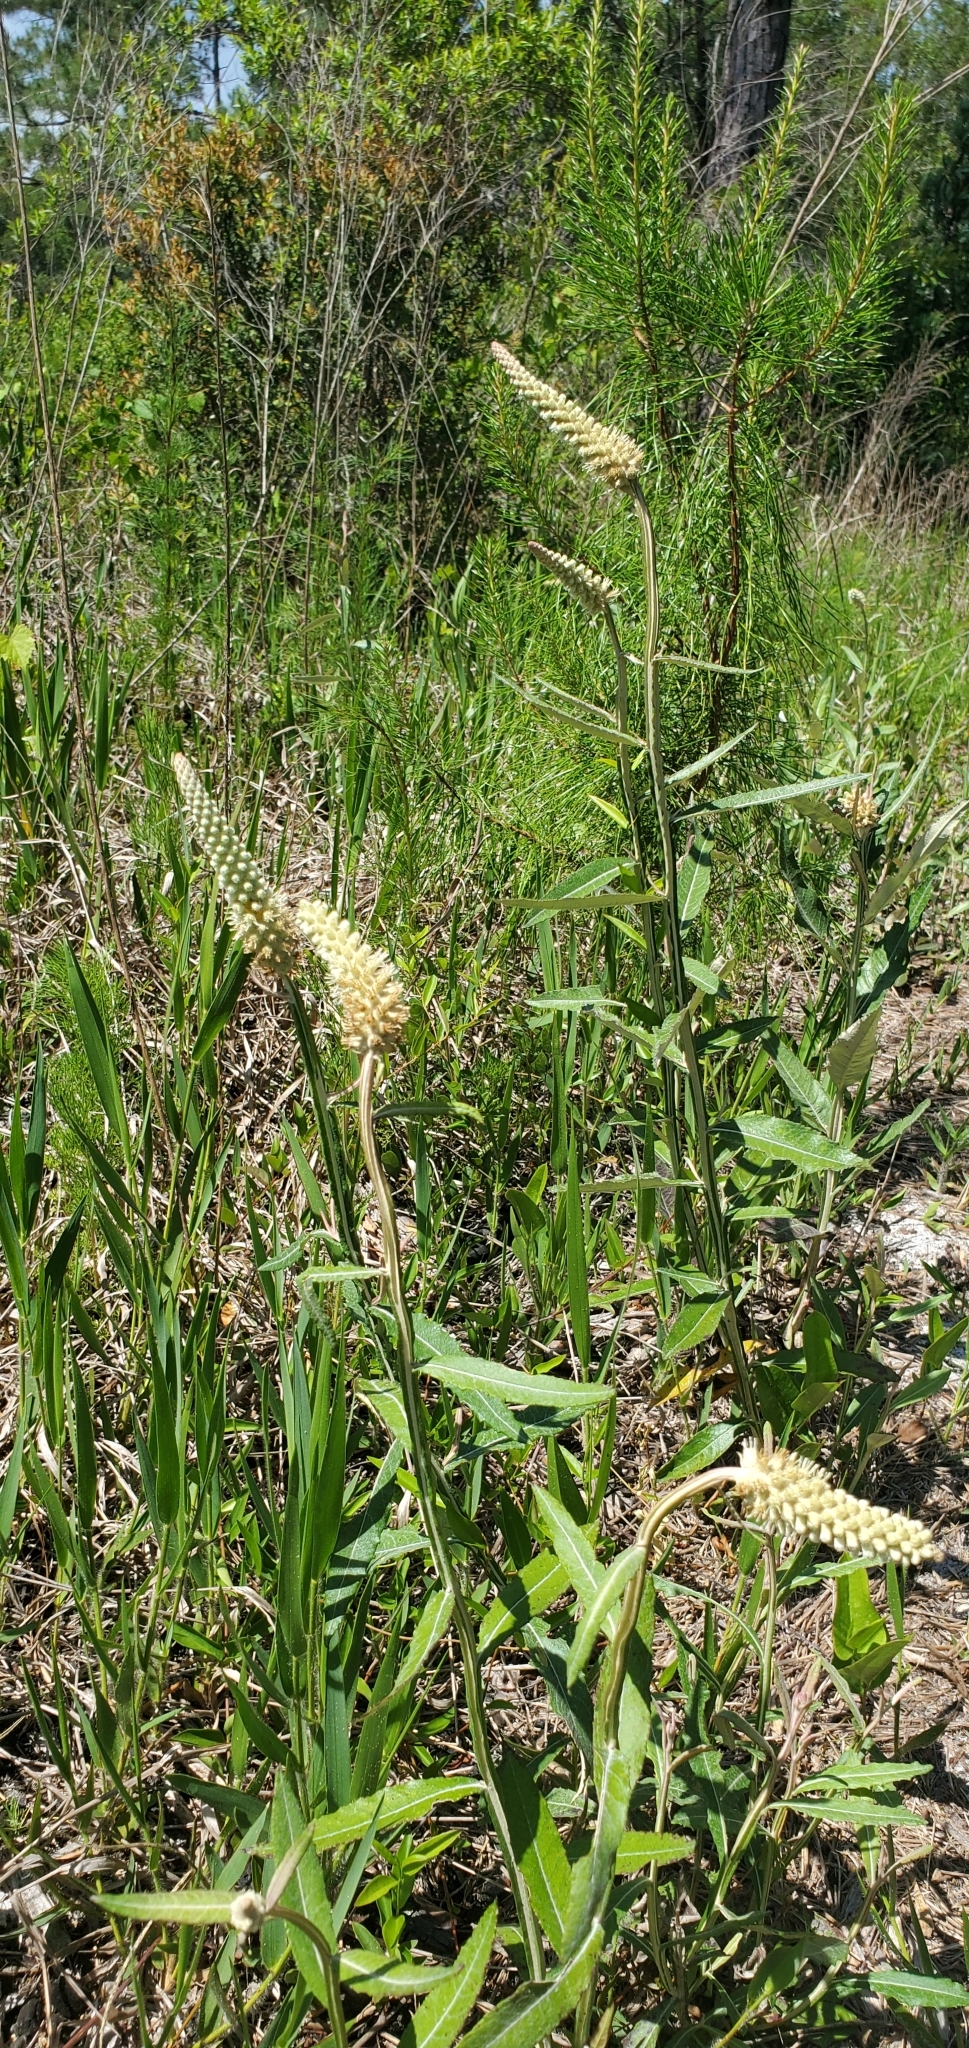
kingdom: Plantae
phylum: Tracheophyta
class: Magnoliopsida
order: Asterales
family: Asteraceae
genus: Pterocaulon
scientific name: Pterocaulon pycnostachyum
